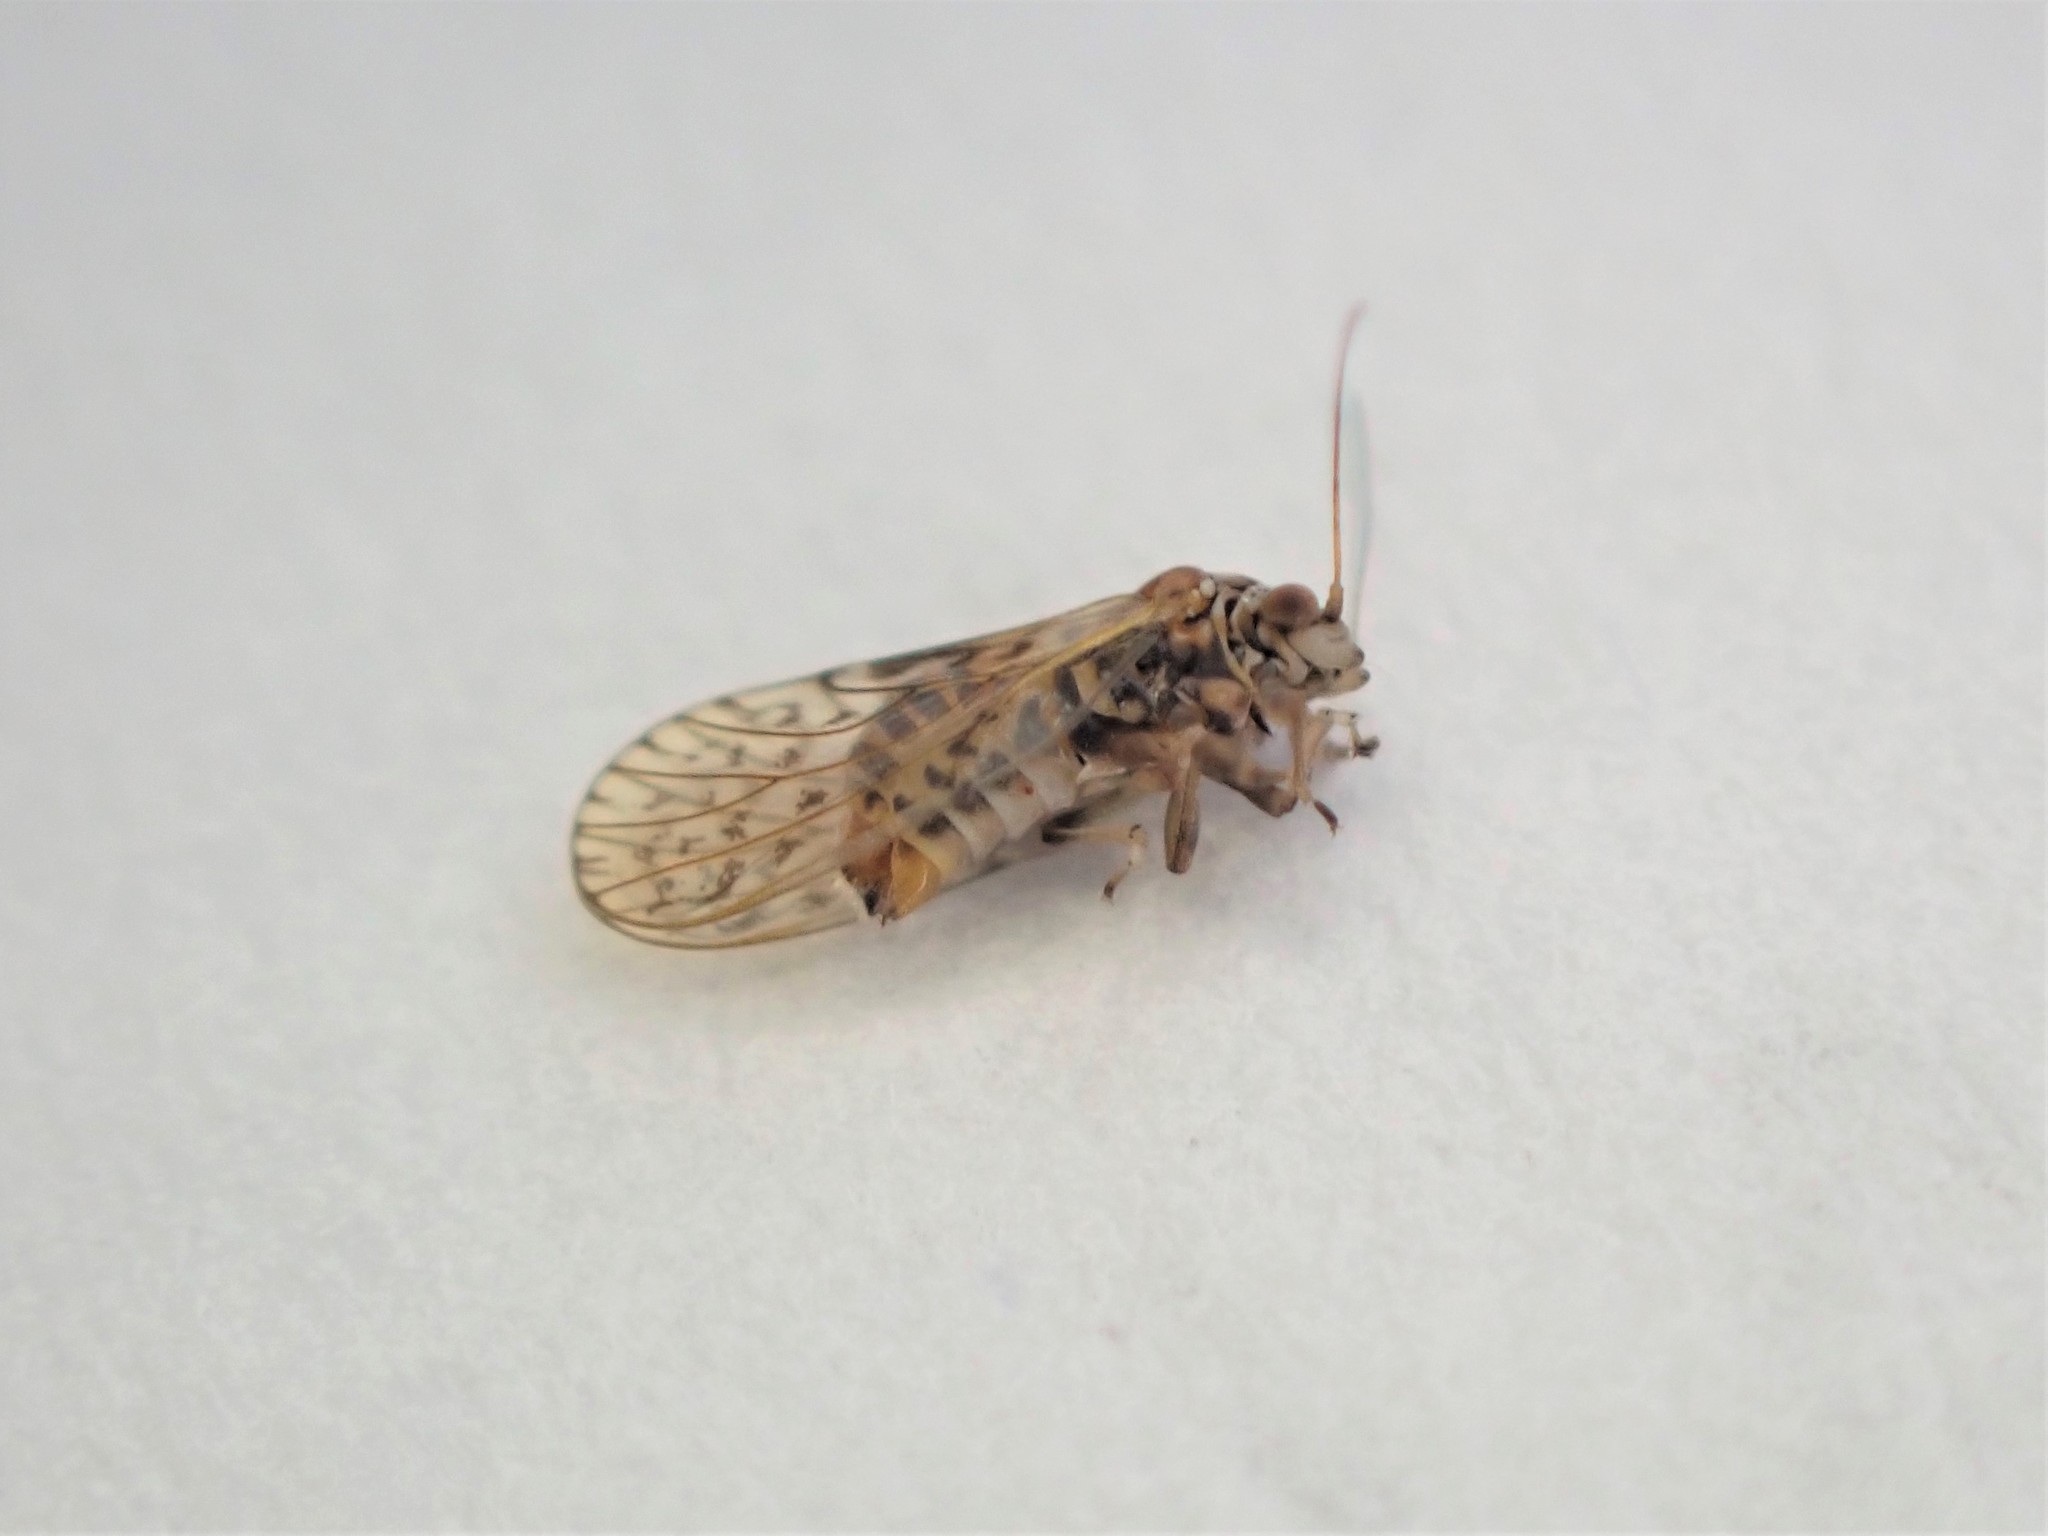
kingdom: Animalia
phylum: Arthropoda
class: Insecta
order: Hemiptera
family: Psyllidae
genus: Acizzia
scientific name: Acizzia acaciae
